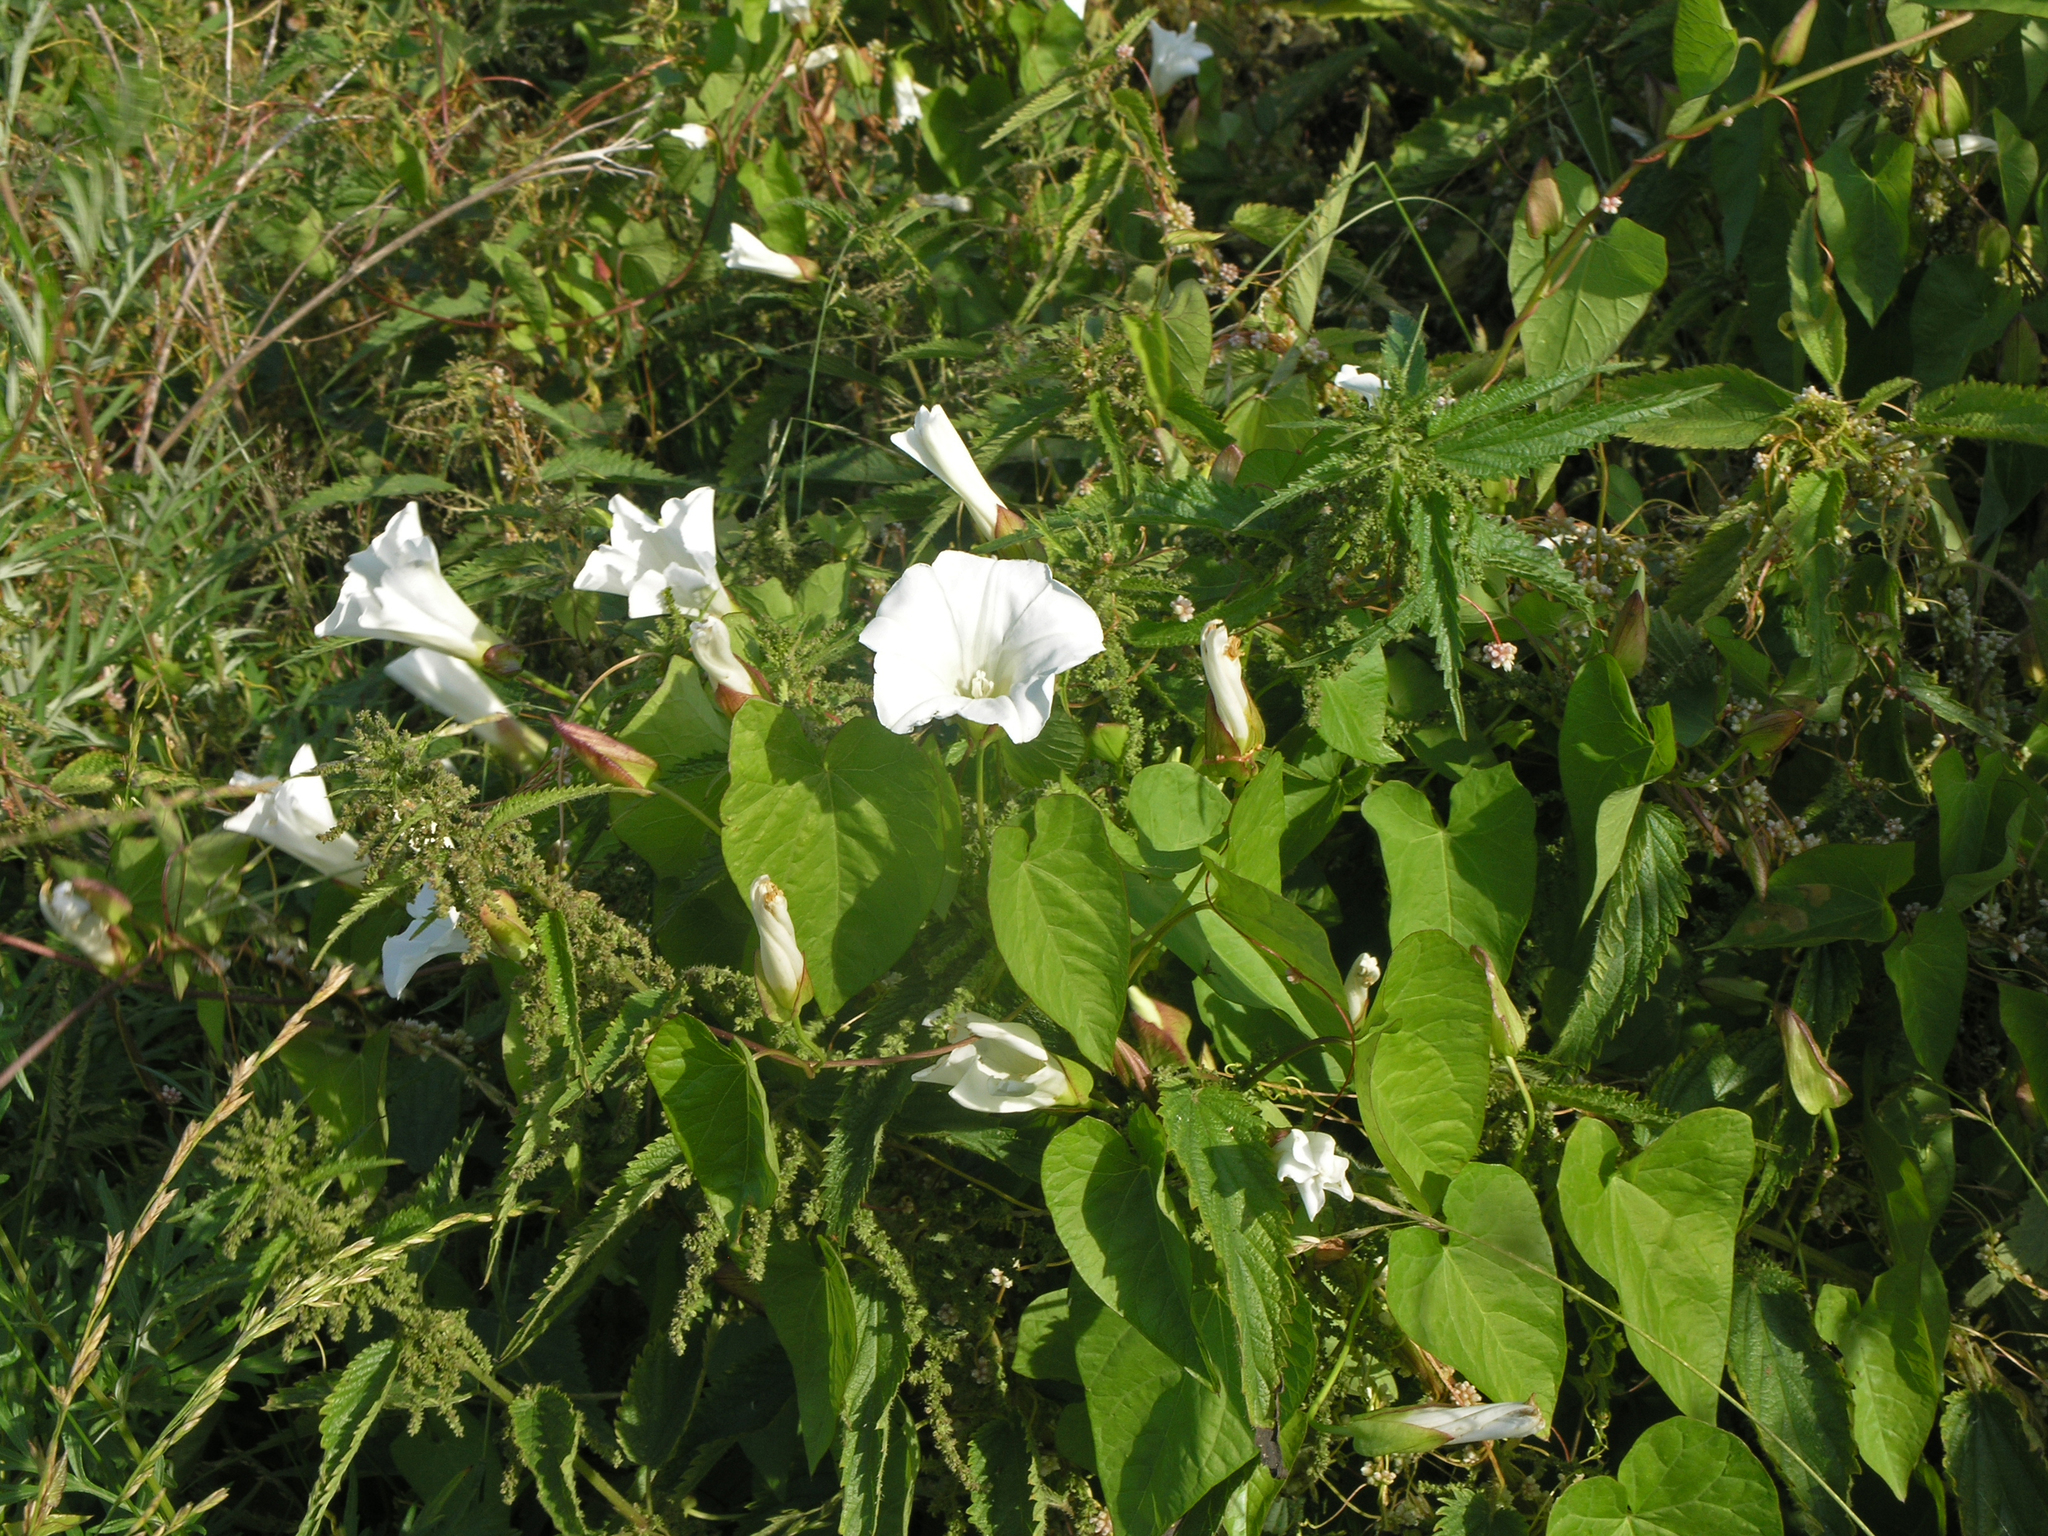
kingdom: Plantae
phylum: Tracheophyta
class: Magnoliopsida
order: Solanales
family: Convolvulaceae
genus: Calystegia
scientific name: Calystegia sepium
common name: Hedge bindweed
